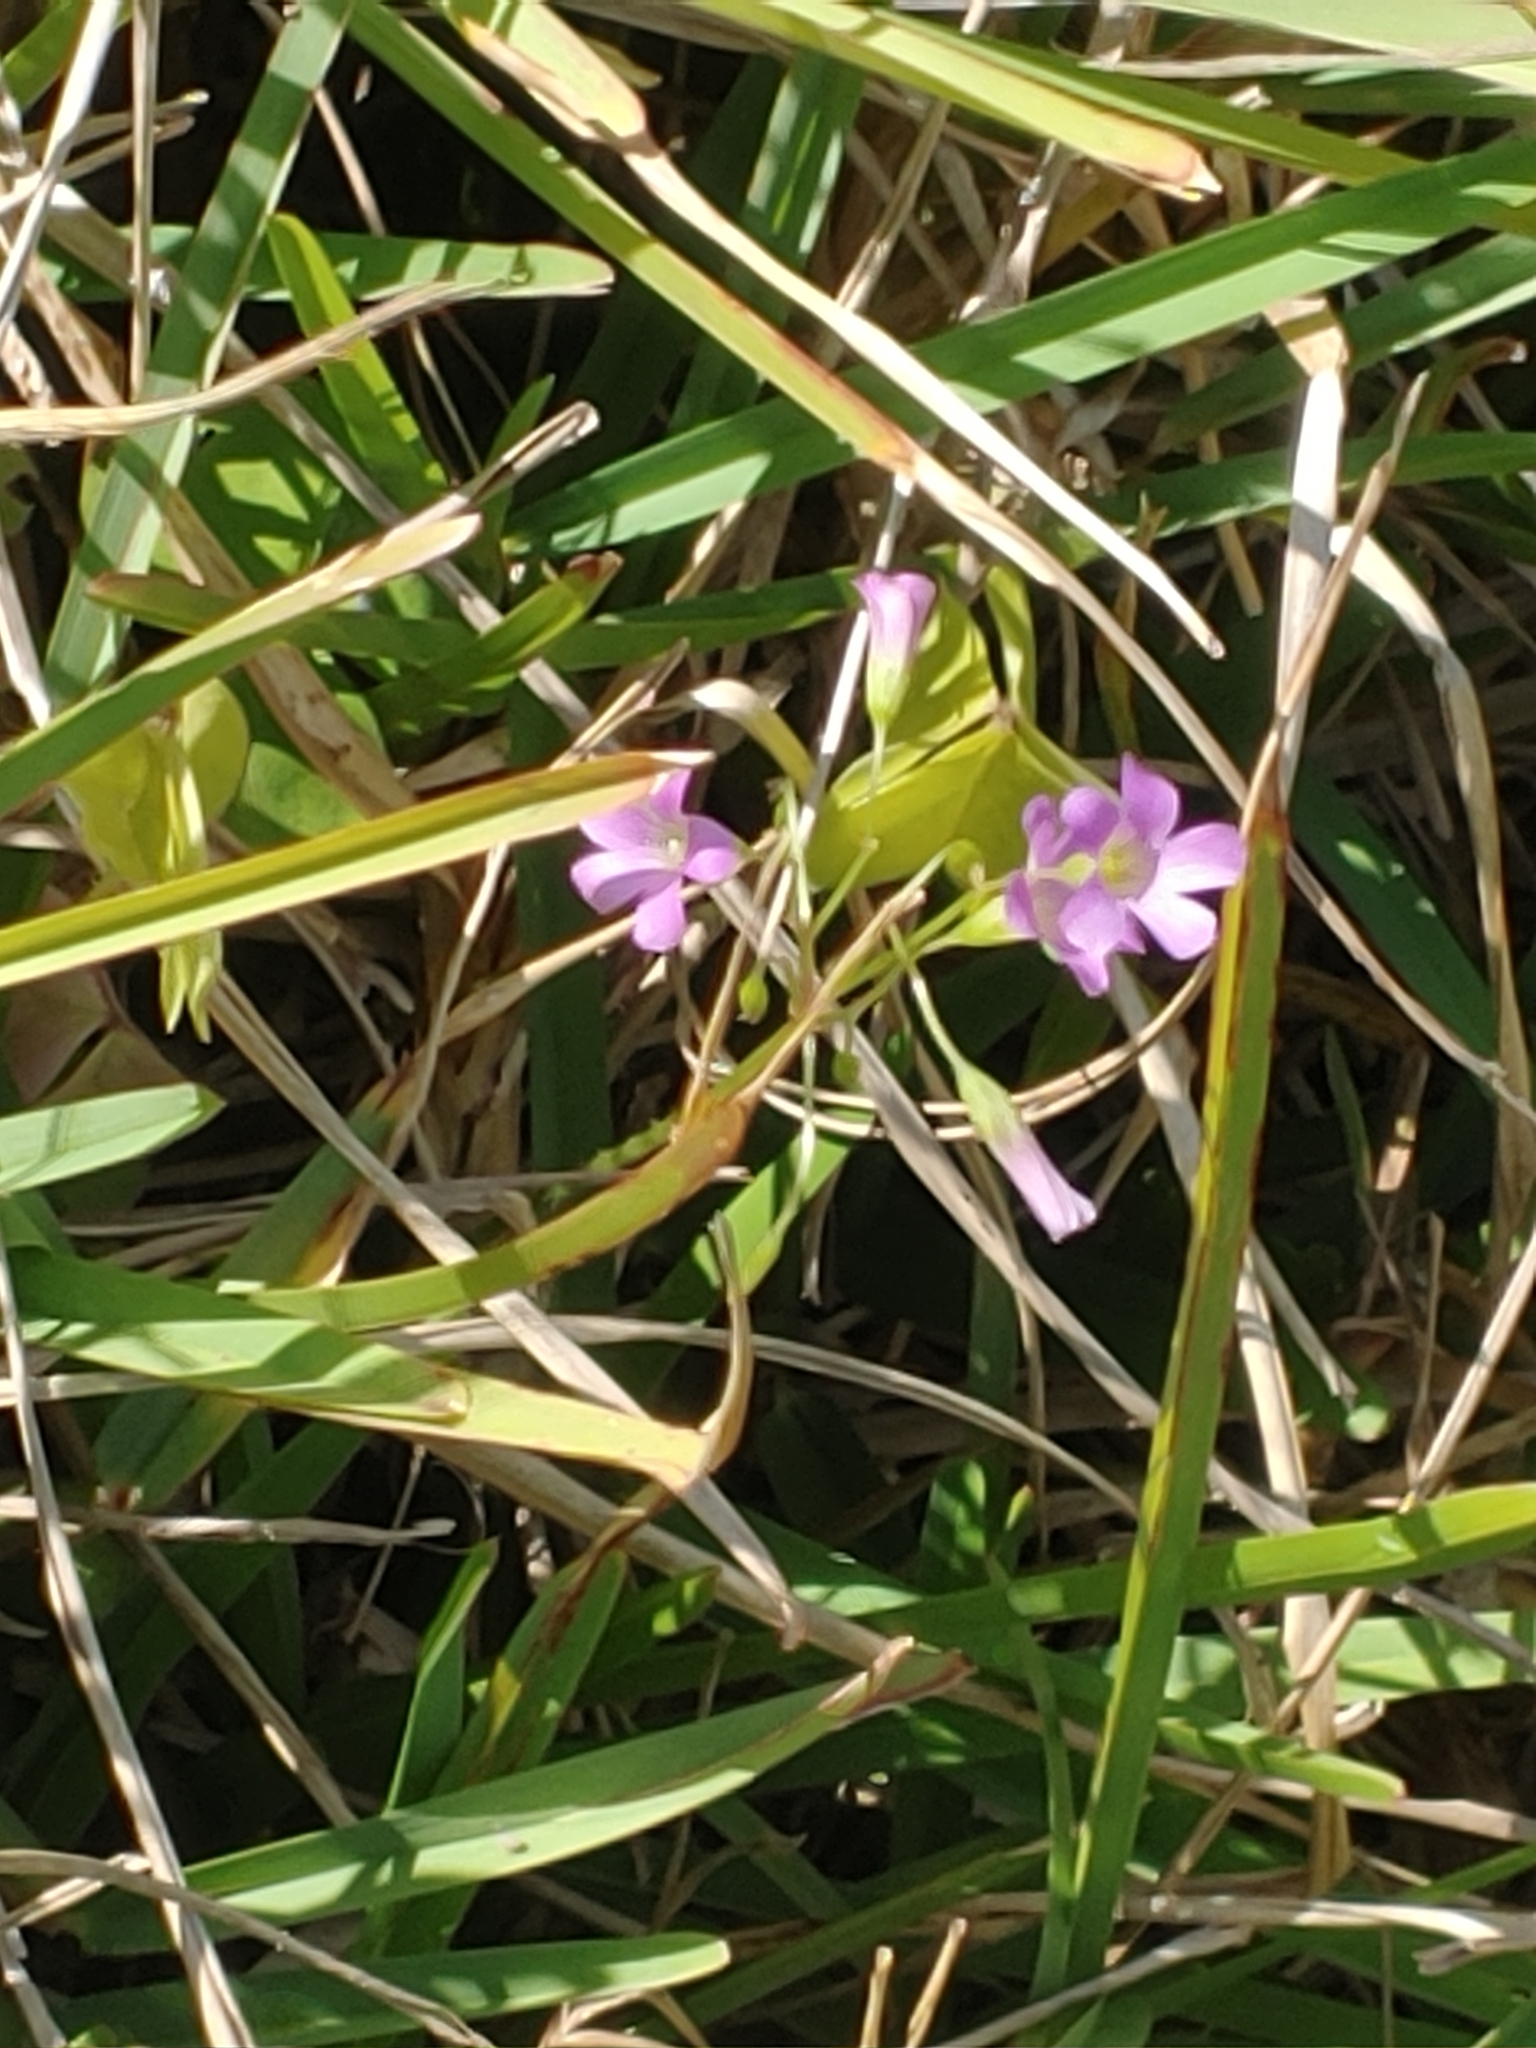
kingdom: Plantae
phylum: Tracheophyta
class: Magnoliopsida
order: Oxalidales
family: Oxalidaceae
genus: Oxalis
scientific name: Oxalis debilis
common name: Large-flowered pink-sorrel
